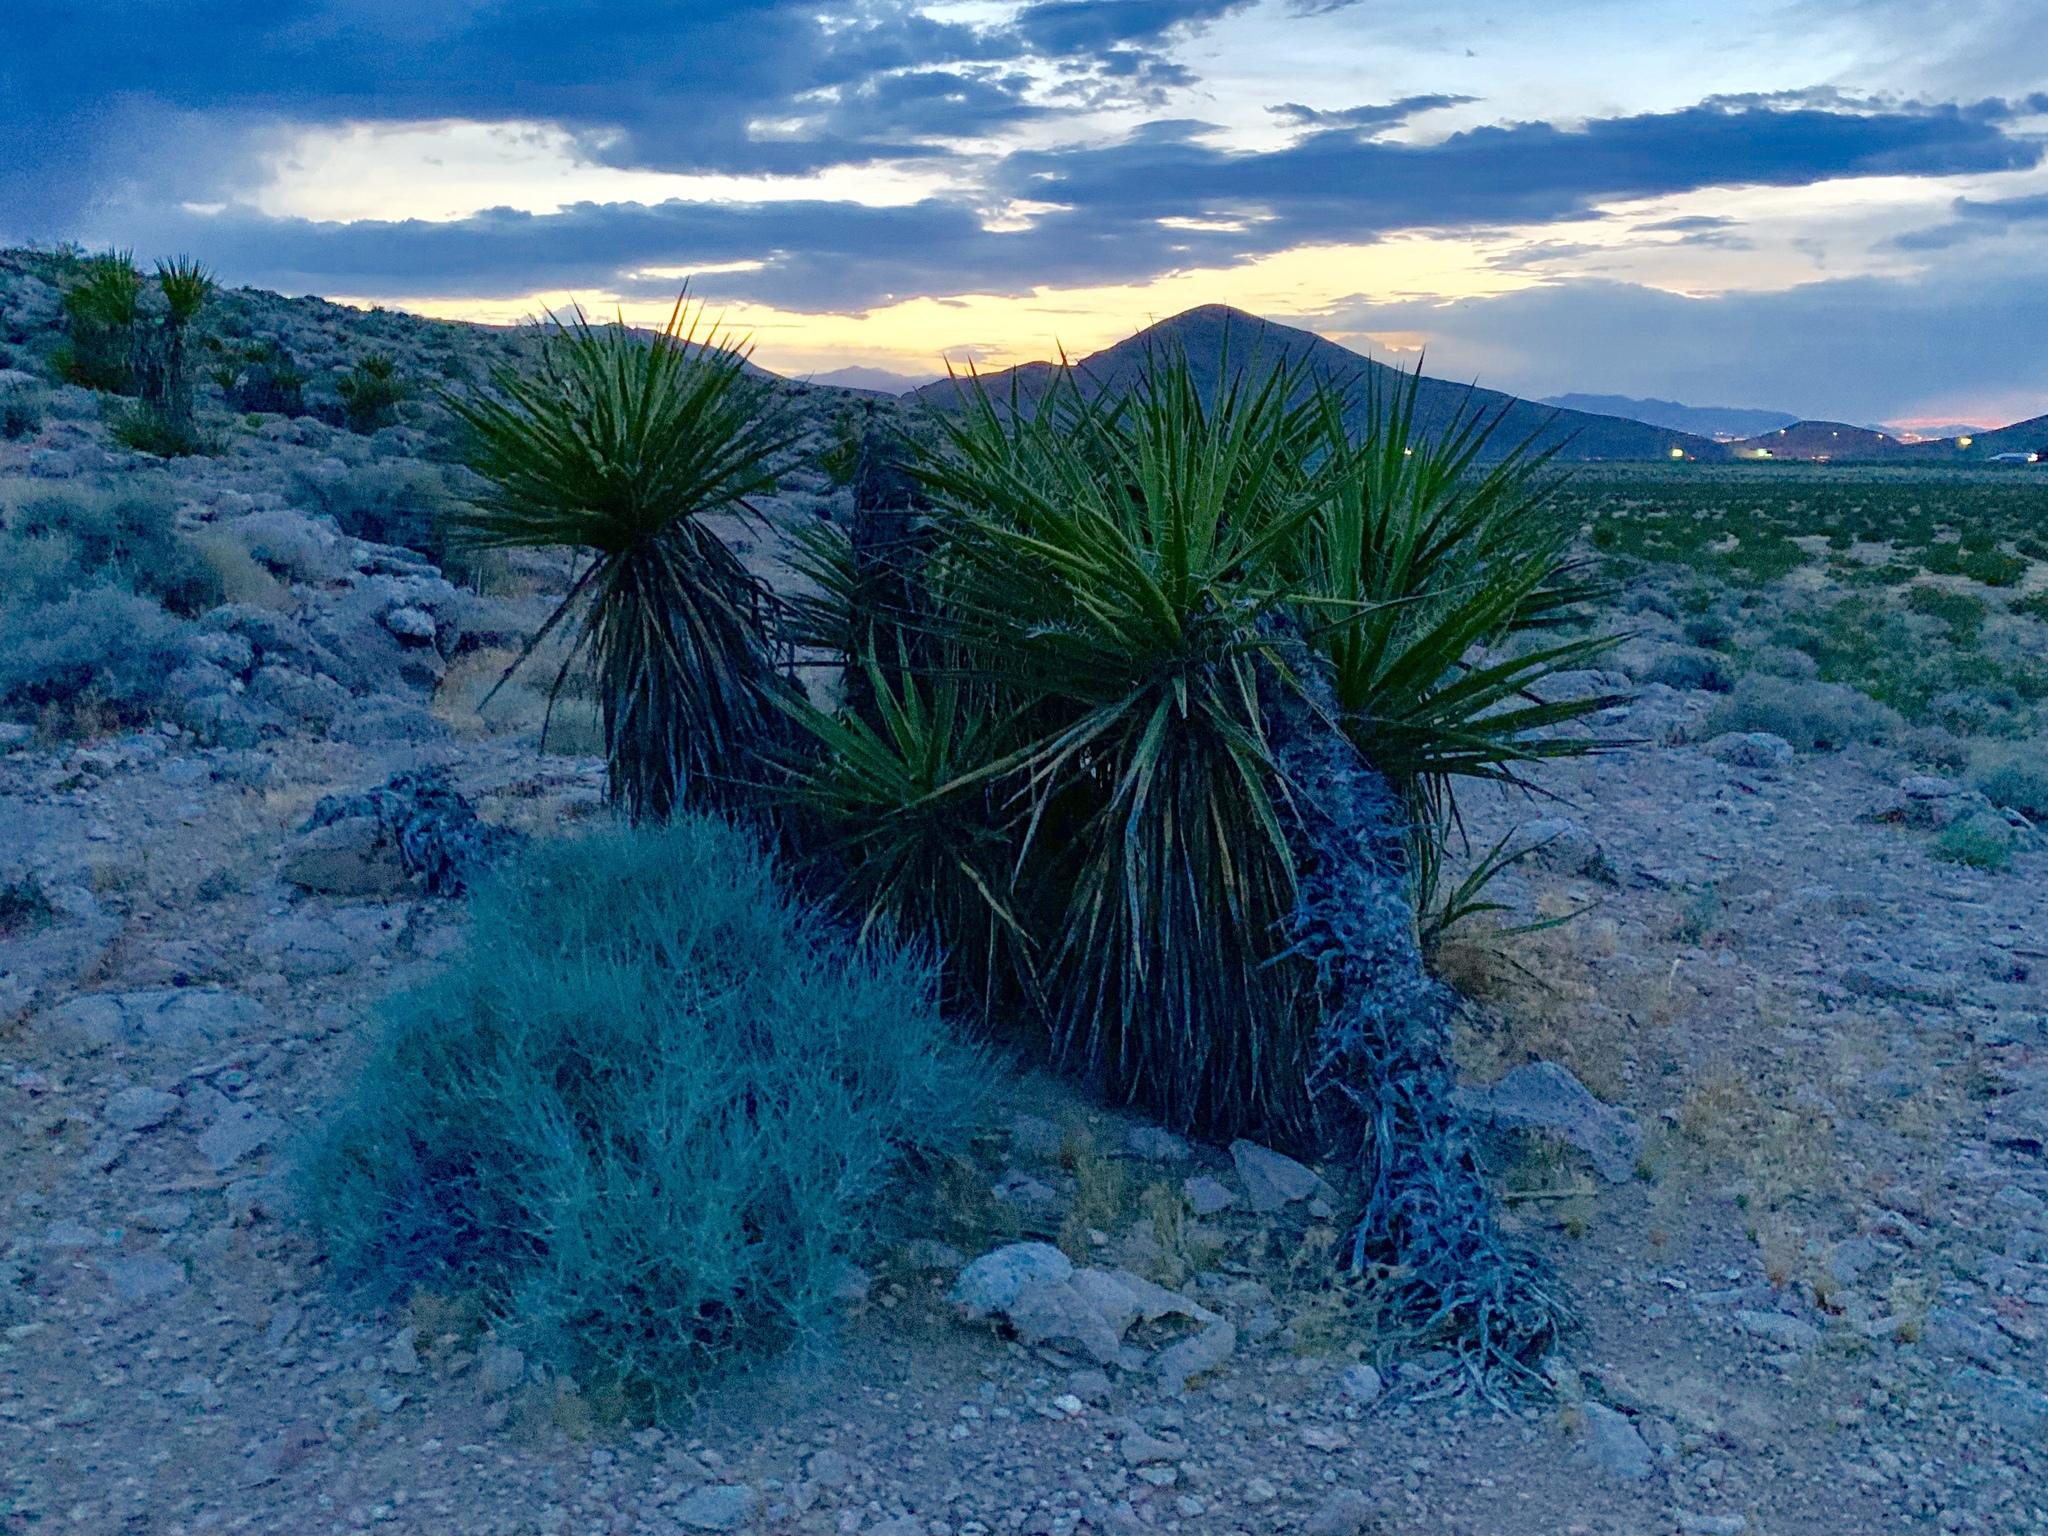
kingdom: Plantae
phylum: Tracheophyta
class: Liliopsida
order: Asparagales
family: Asparagaceae
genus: Yucca
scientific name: Yucca schidigera
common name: Mojave yucca
